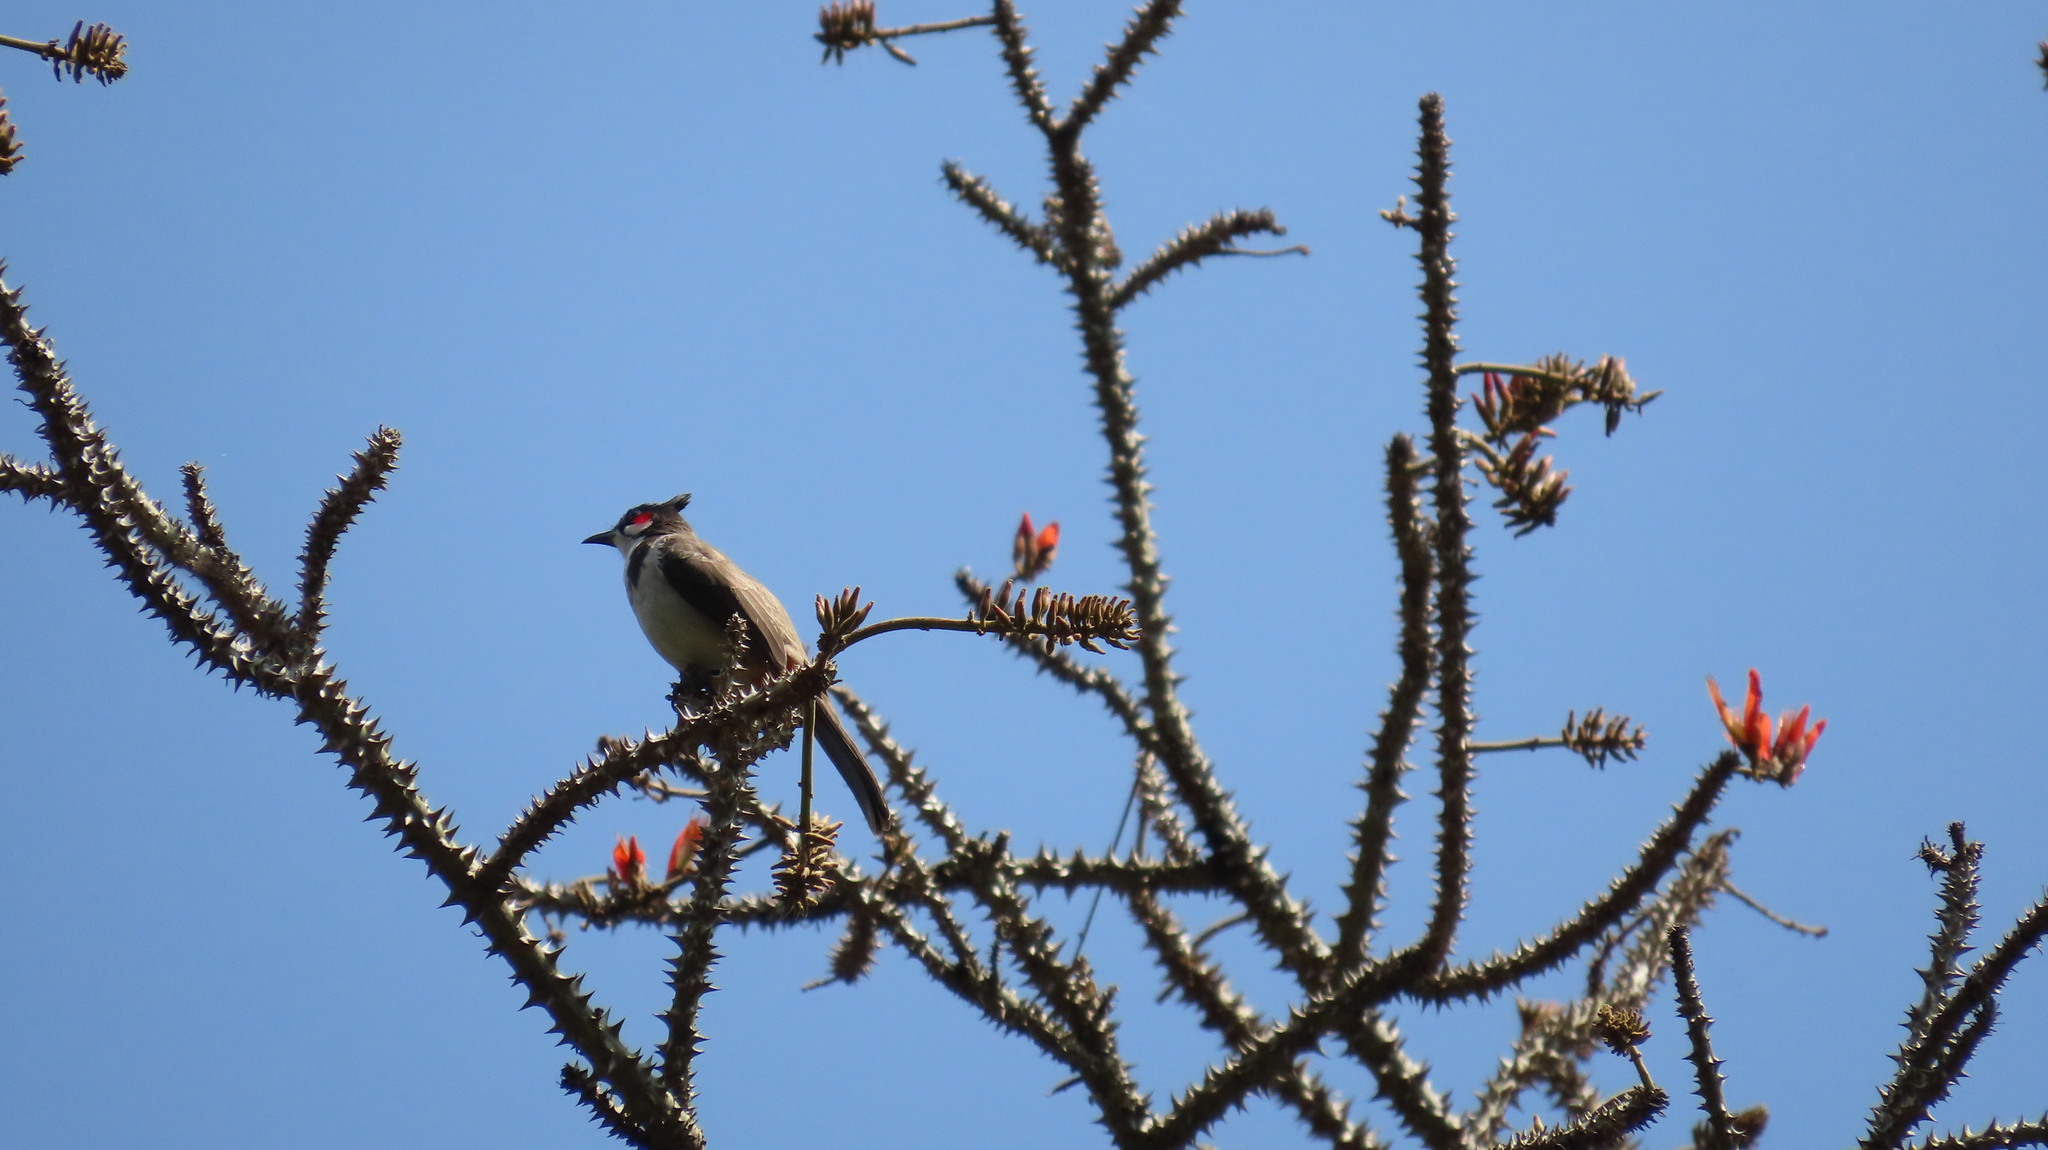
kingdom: Animalia
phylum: Chordata
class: Aves
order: Passeriformes
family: Pycnonotidae
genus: Pycnonotus
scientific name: Pycnonotus jocosus
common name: Red-whiskered bulbul
